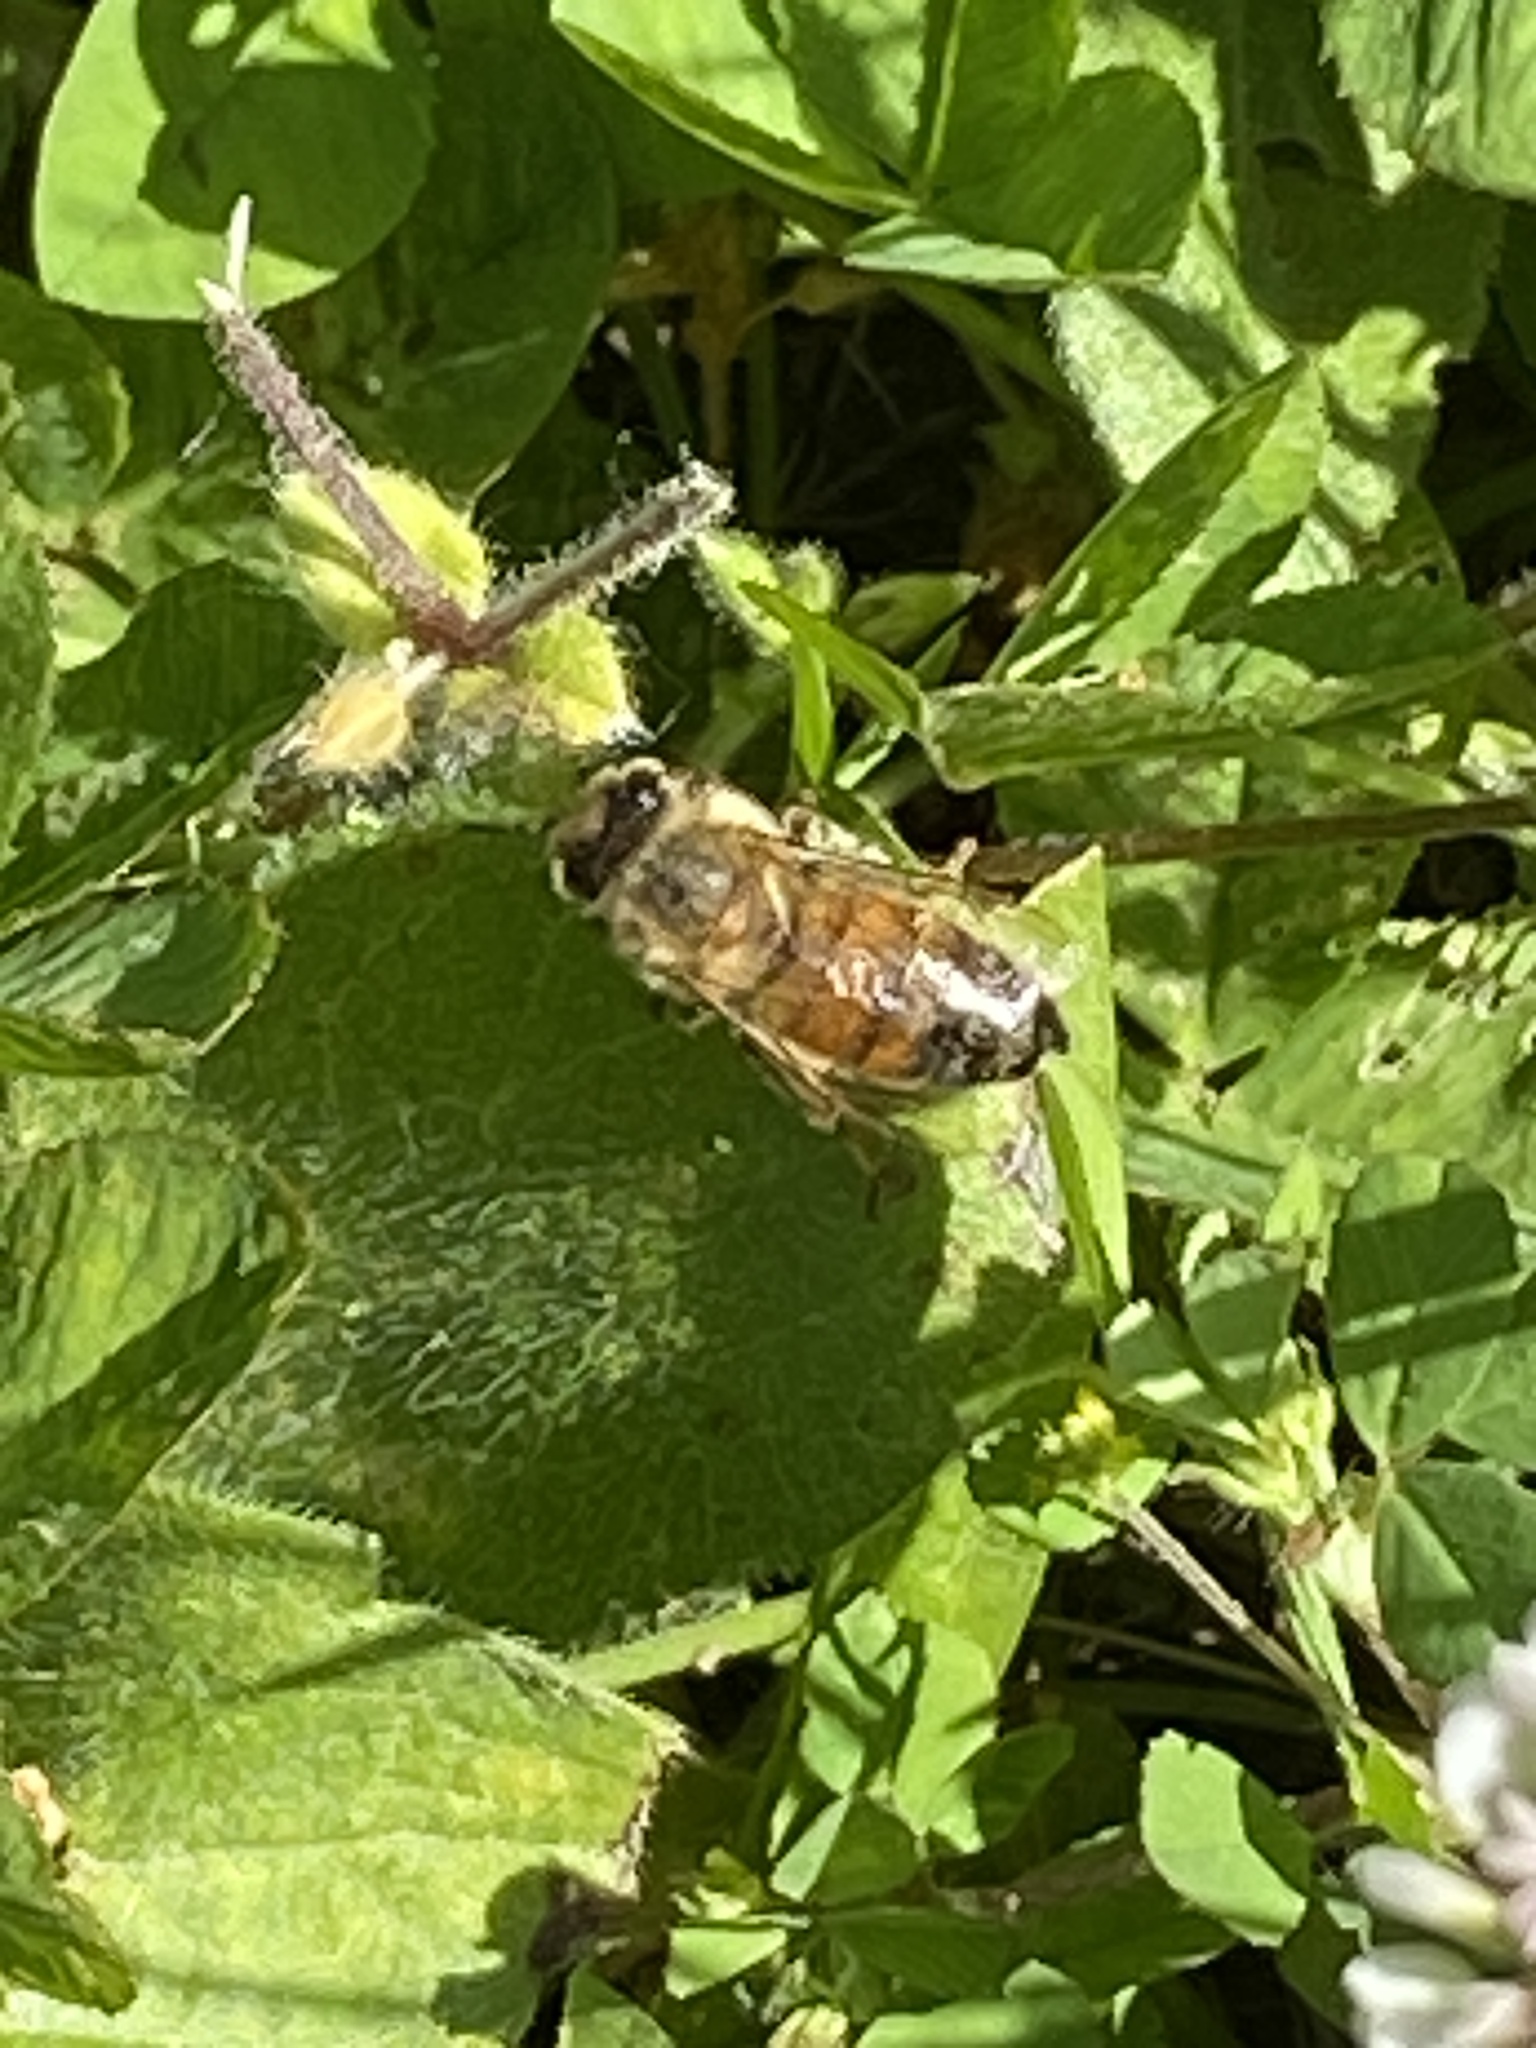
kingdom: Animalia
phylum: Arthropoda
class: Insecta
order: Hymenoptera
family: Apidae
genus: Apis
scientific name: Apis mellifera
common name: Honey bee
